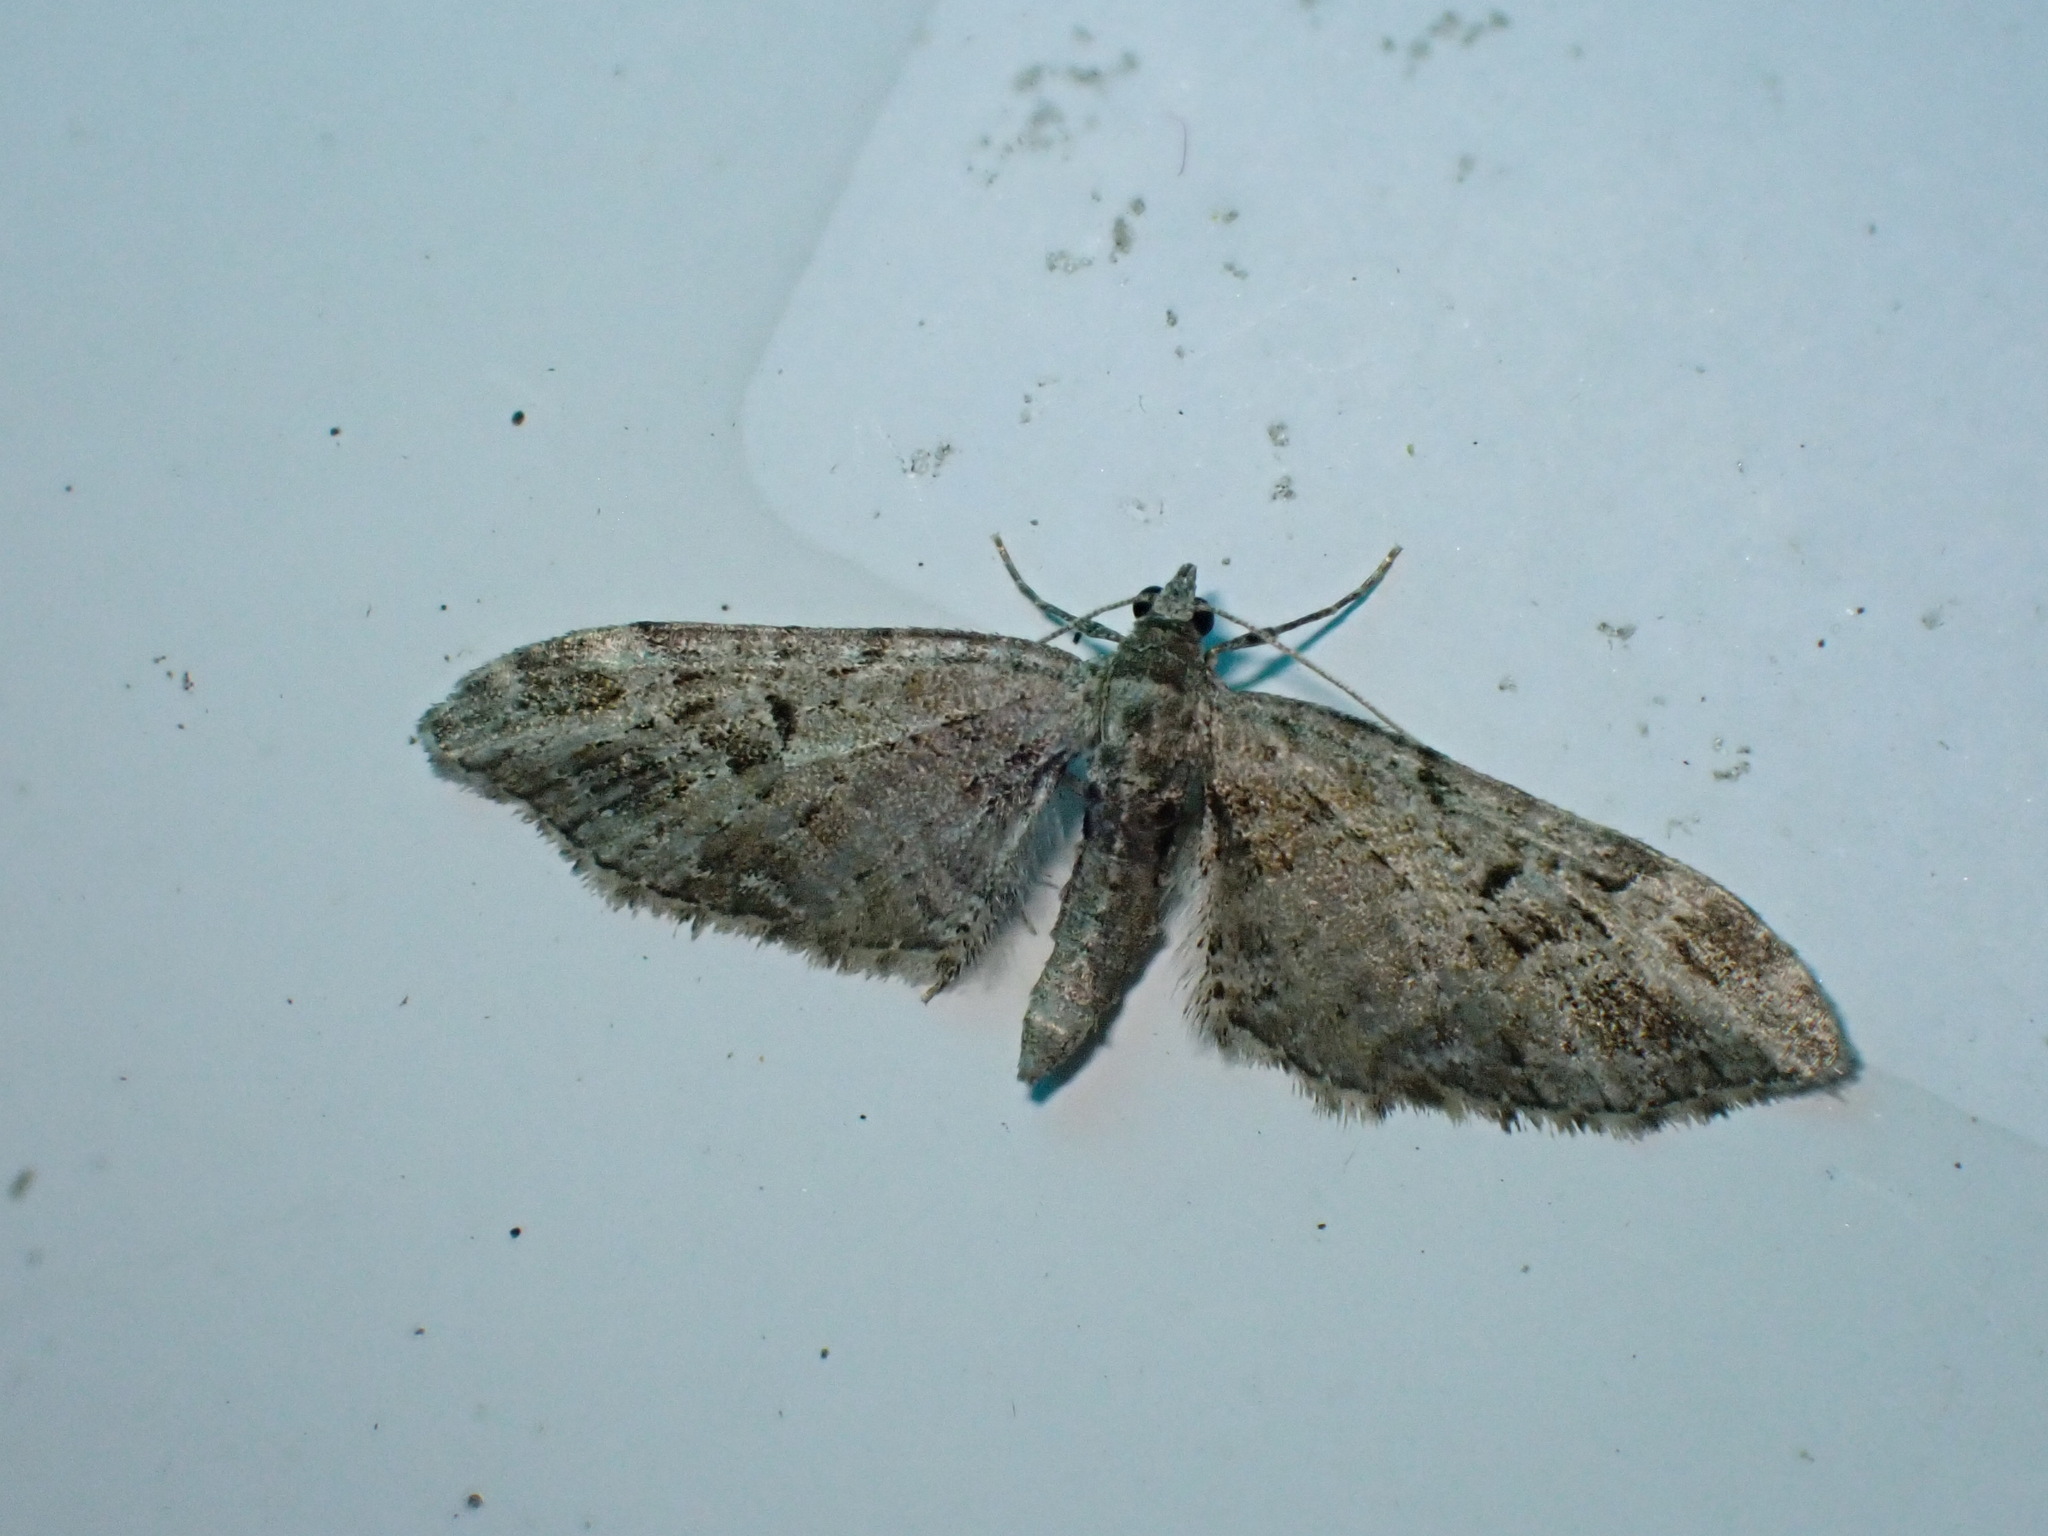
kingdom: Animalia
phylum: Arthropoda
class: Insecta
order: Lepidoptera
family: Geometridae
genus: Eupithecia
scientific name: Eupithecia exiguata
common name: Mottled pug
